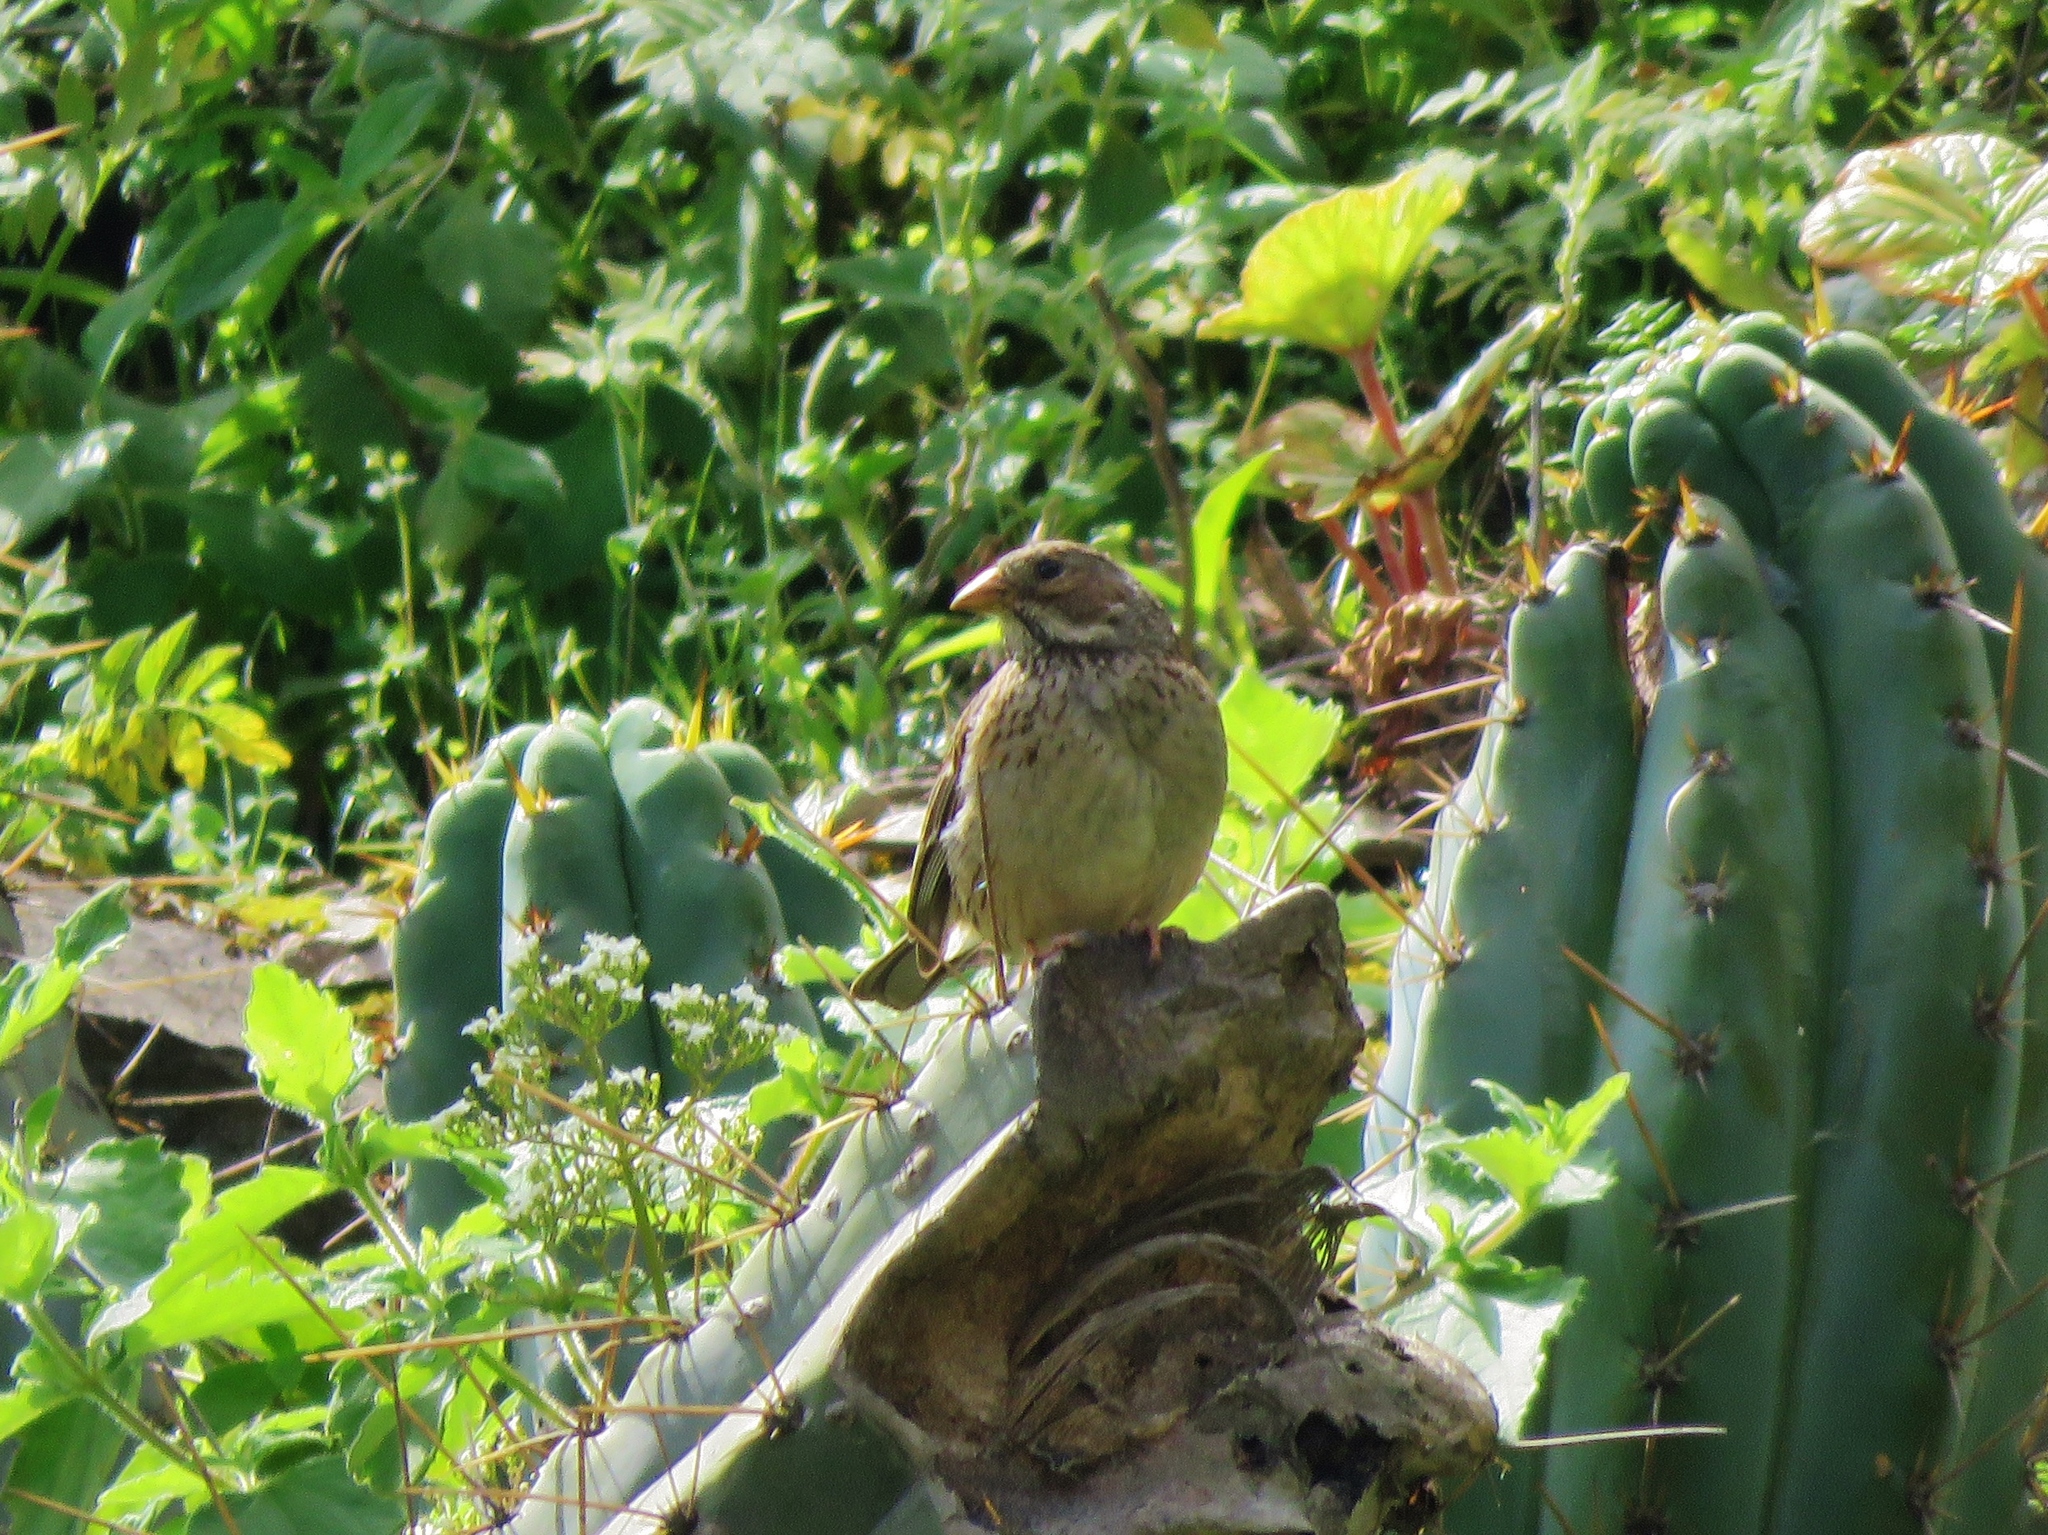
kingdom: Animalia
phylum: Chordata
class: Aves
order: Passeriformes
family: Thraupidae
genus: Rhopospina
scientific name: Rhopospina fruticeti
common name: Mourning sierra finch
